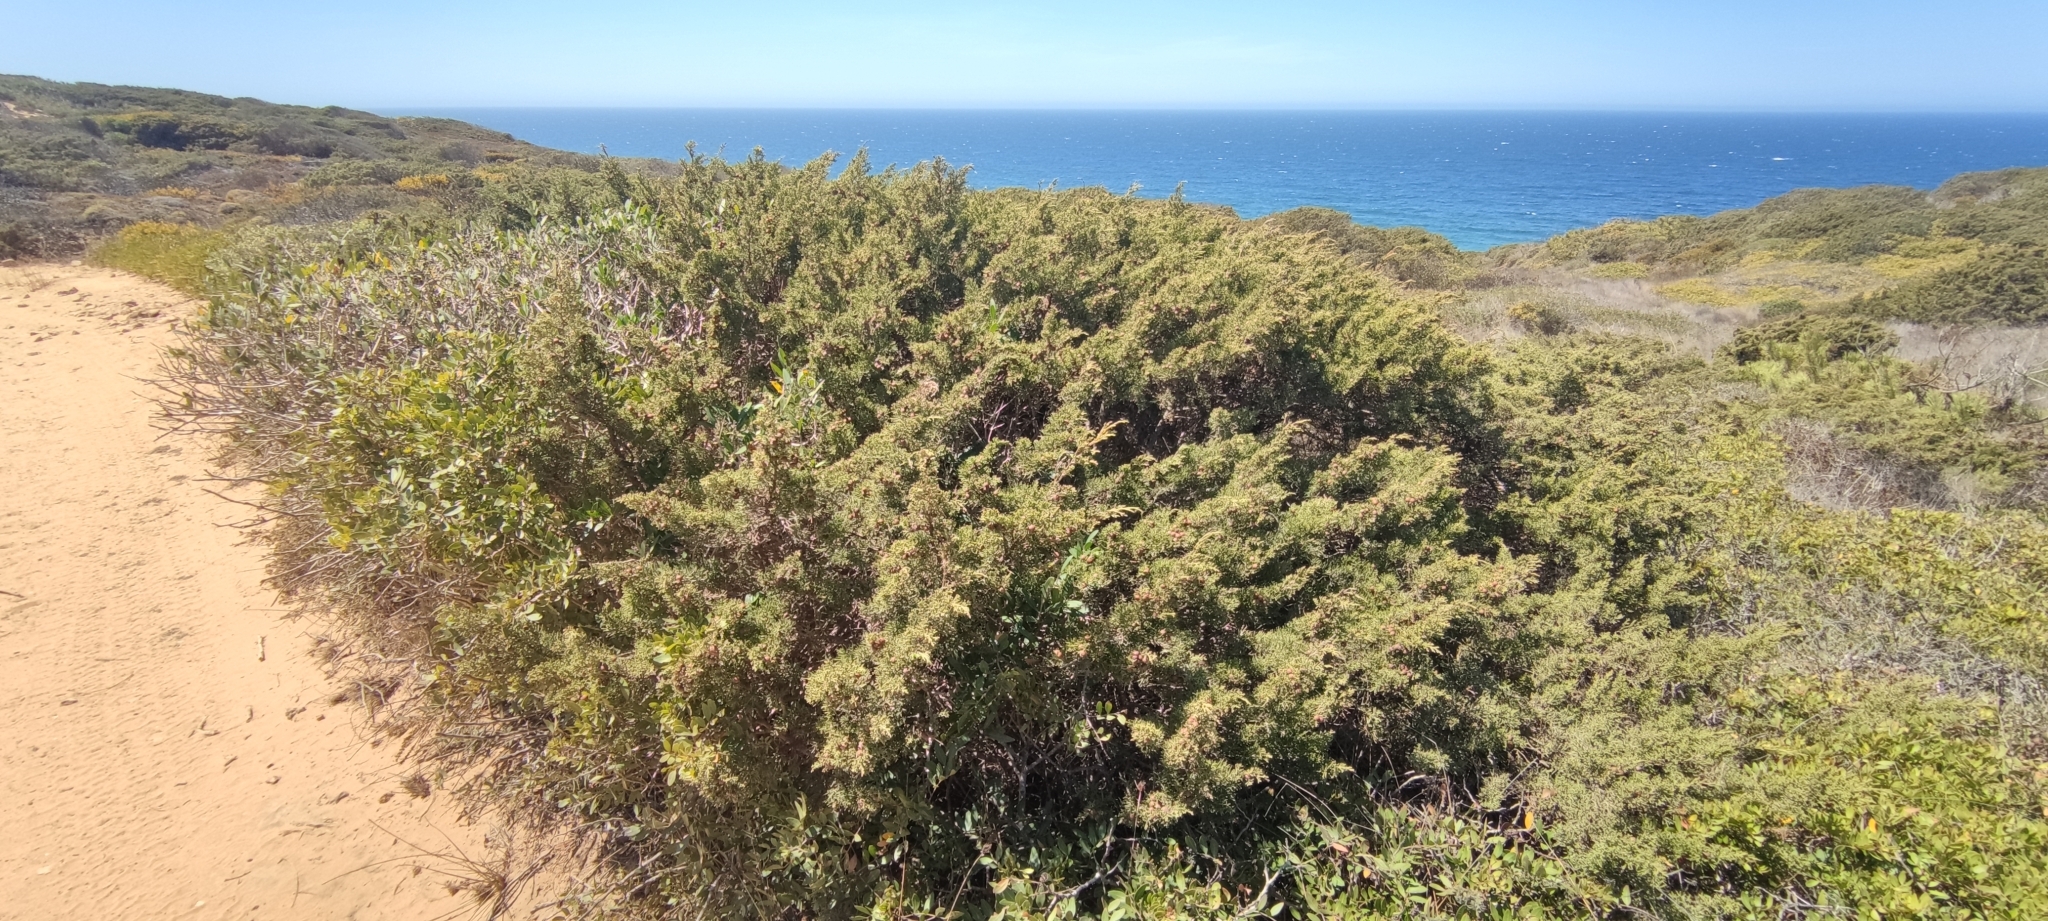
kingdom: Plantae
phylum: Tracheophyta
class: Pinopsida
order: Pinales
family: Cupressaceae
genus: Juniperus
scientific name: Juniperus phoenicea
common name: Phoenician juniper
